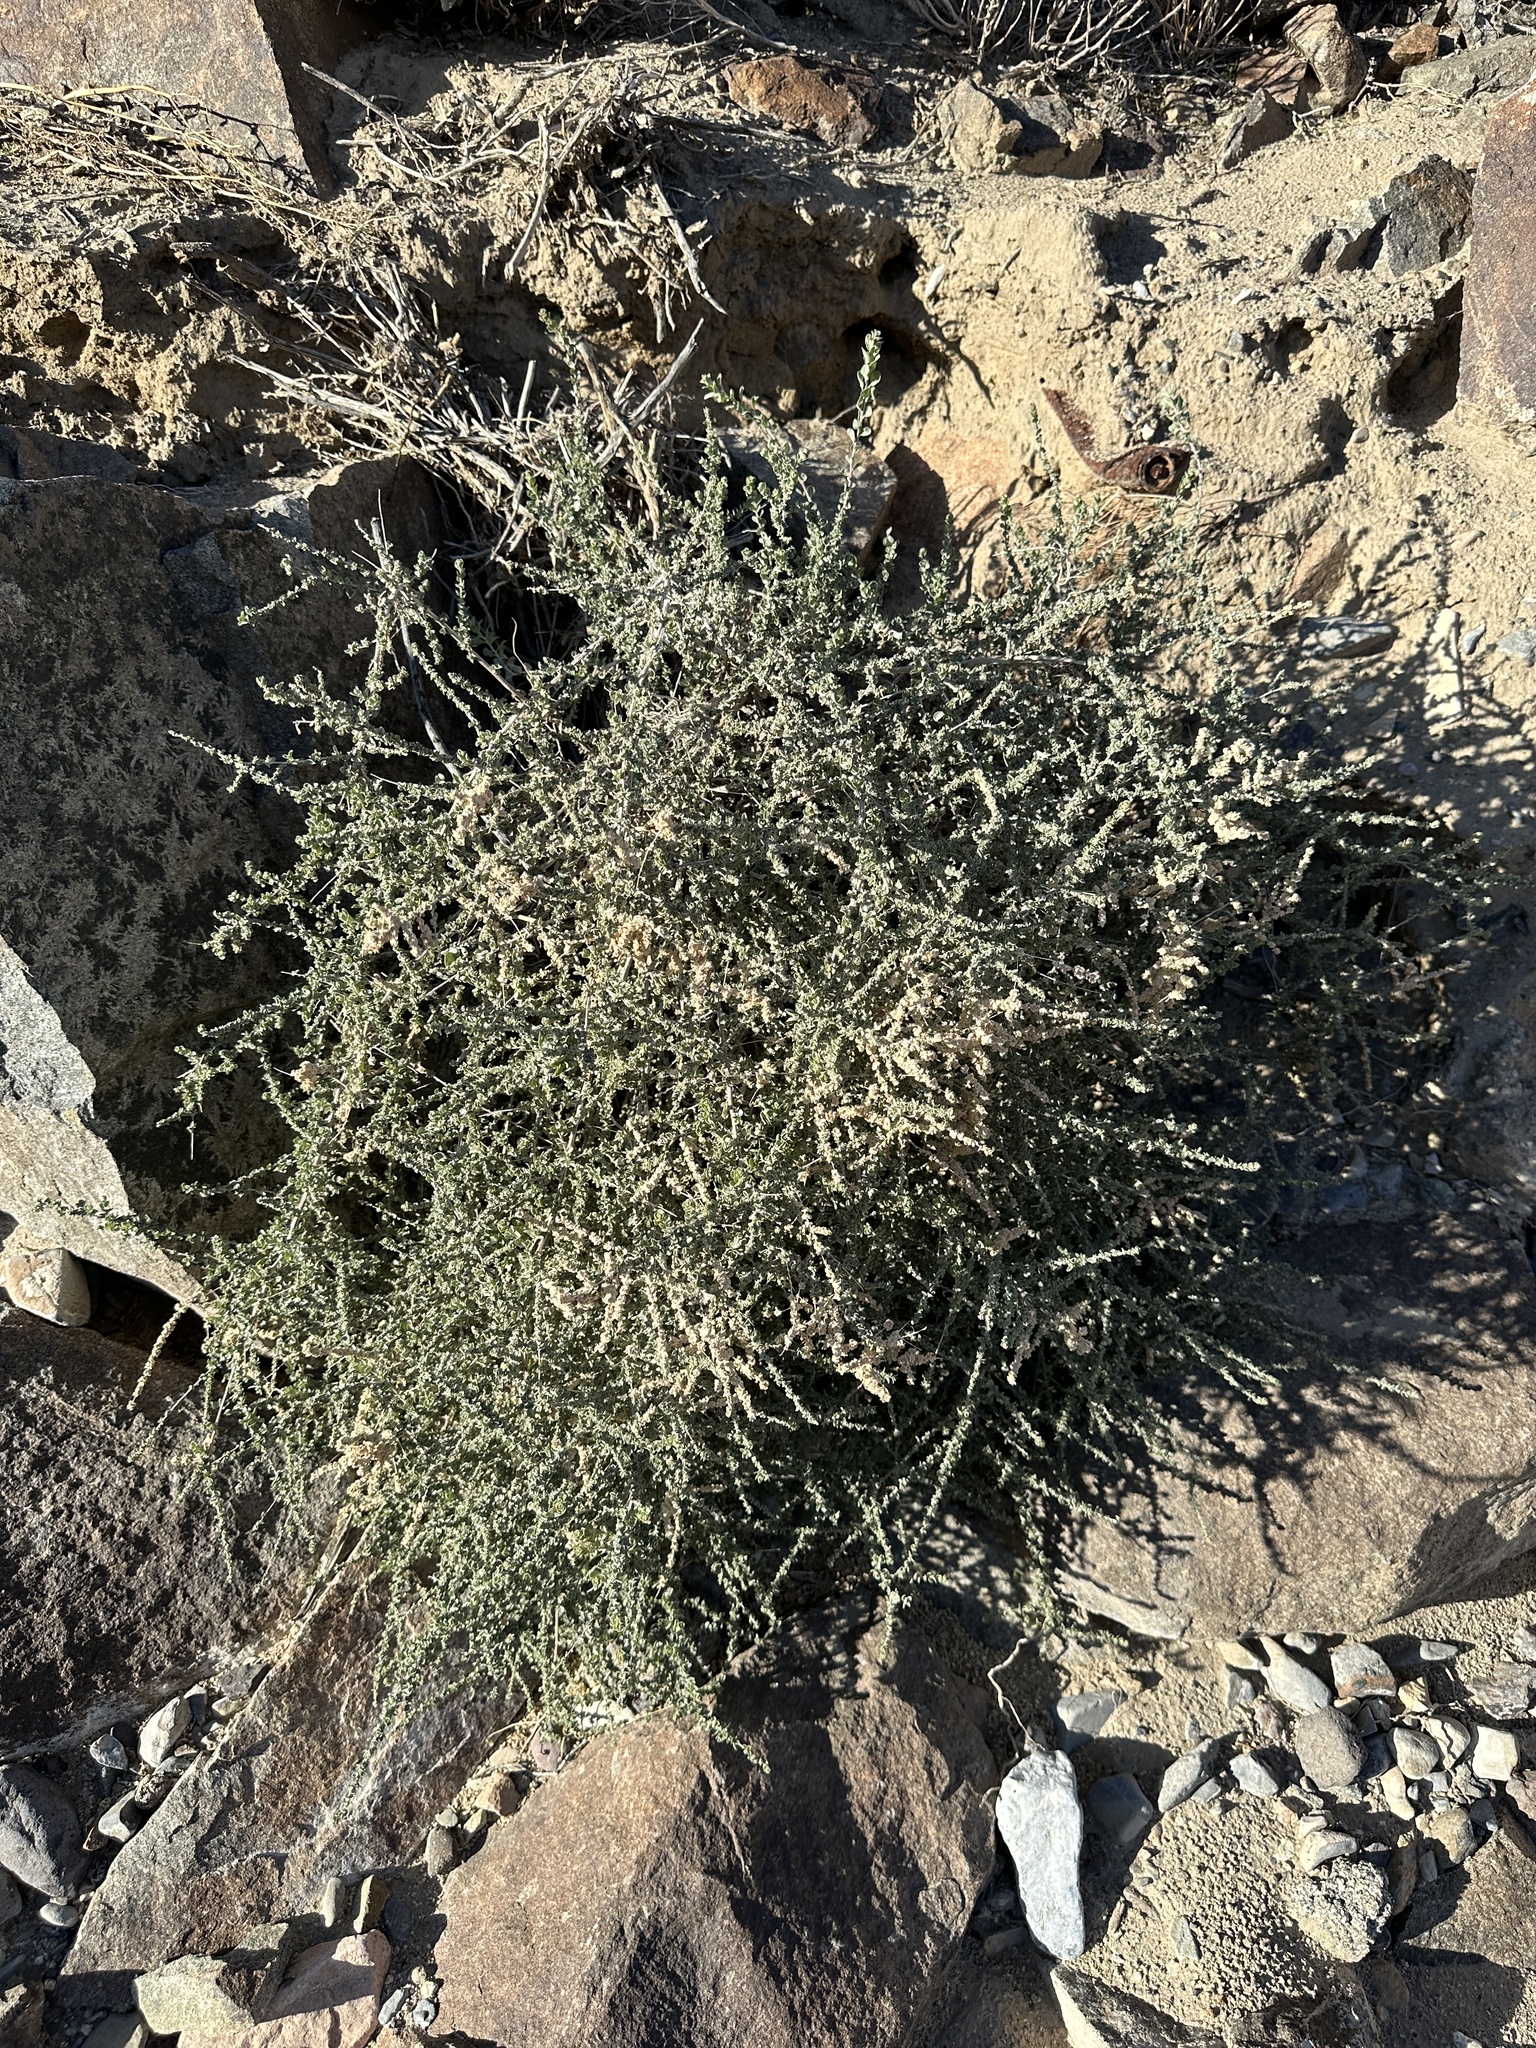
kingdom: Plantae
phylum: Tracheophyta
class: Magnoliopsida
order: Caryophyllales
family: Amaranthaceae
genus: Atriplex
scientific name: Atriplex polycarpa
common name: Desert saltbush
